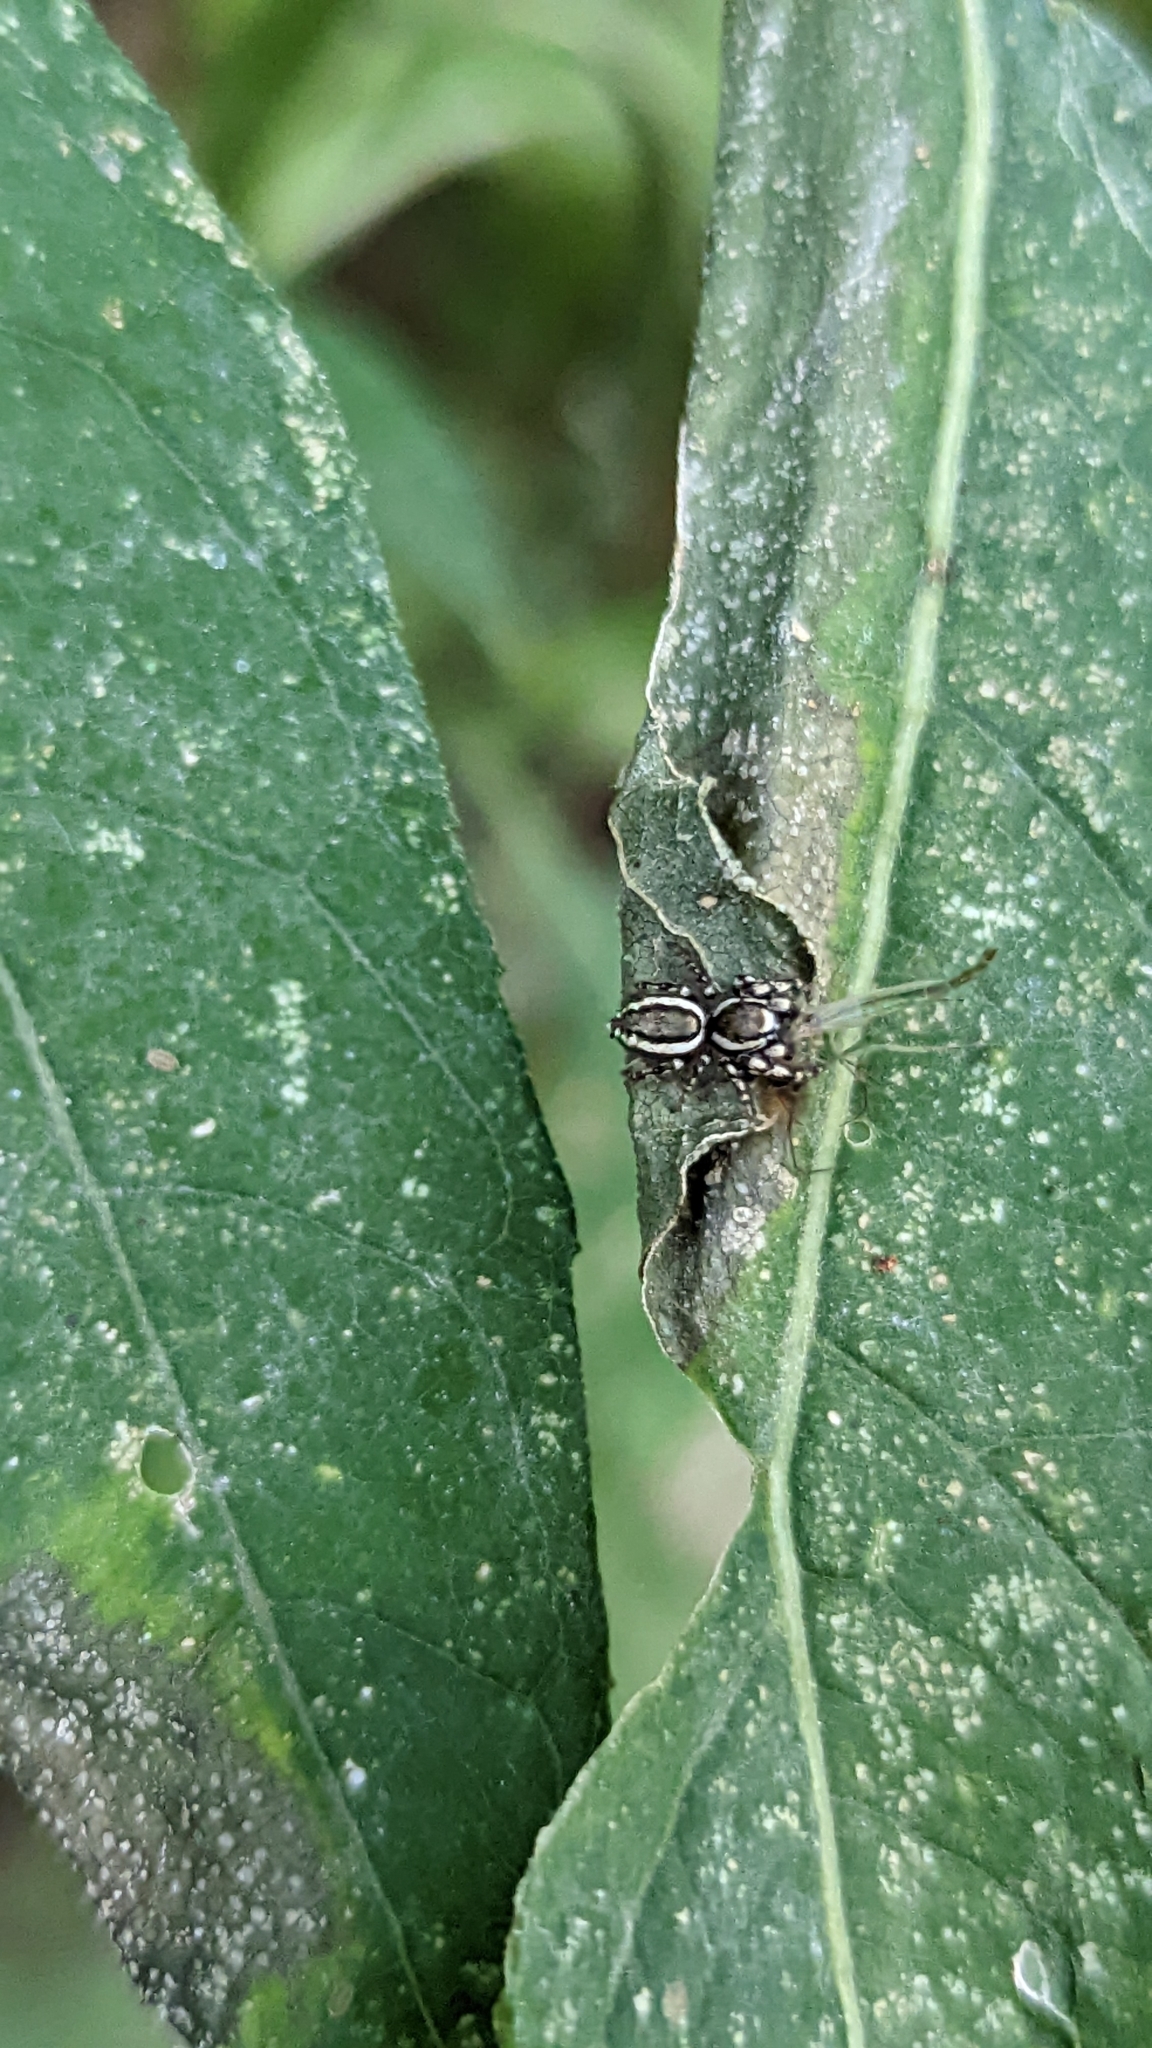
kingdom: Animalia
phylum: Arthropoda
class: Arachnida
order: Araneae
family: Salticidae
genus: Pelegrina
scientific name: Pelegrina proterva
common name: Common white-cheeked jumping spider
